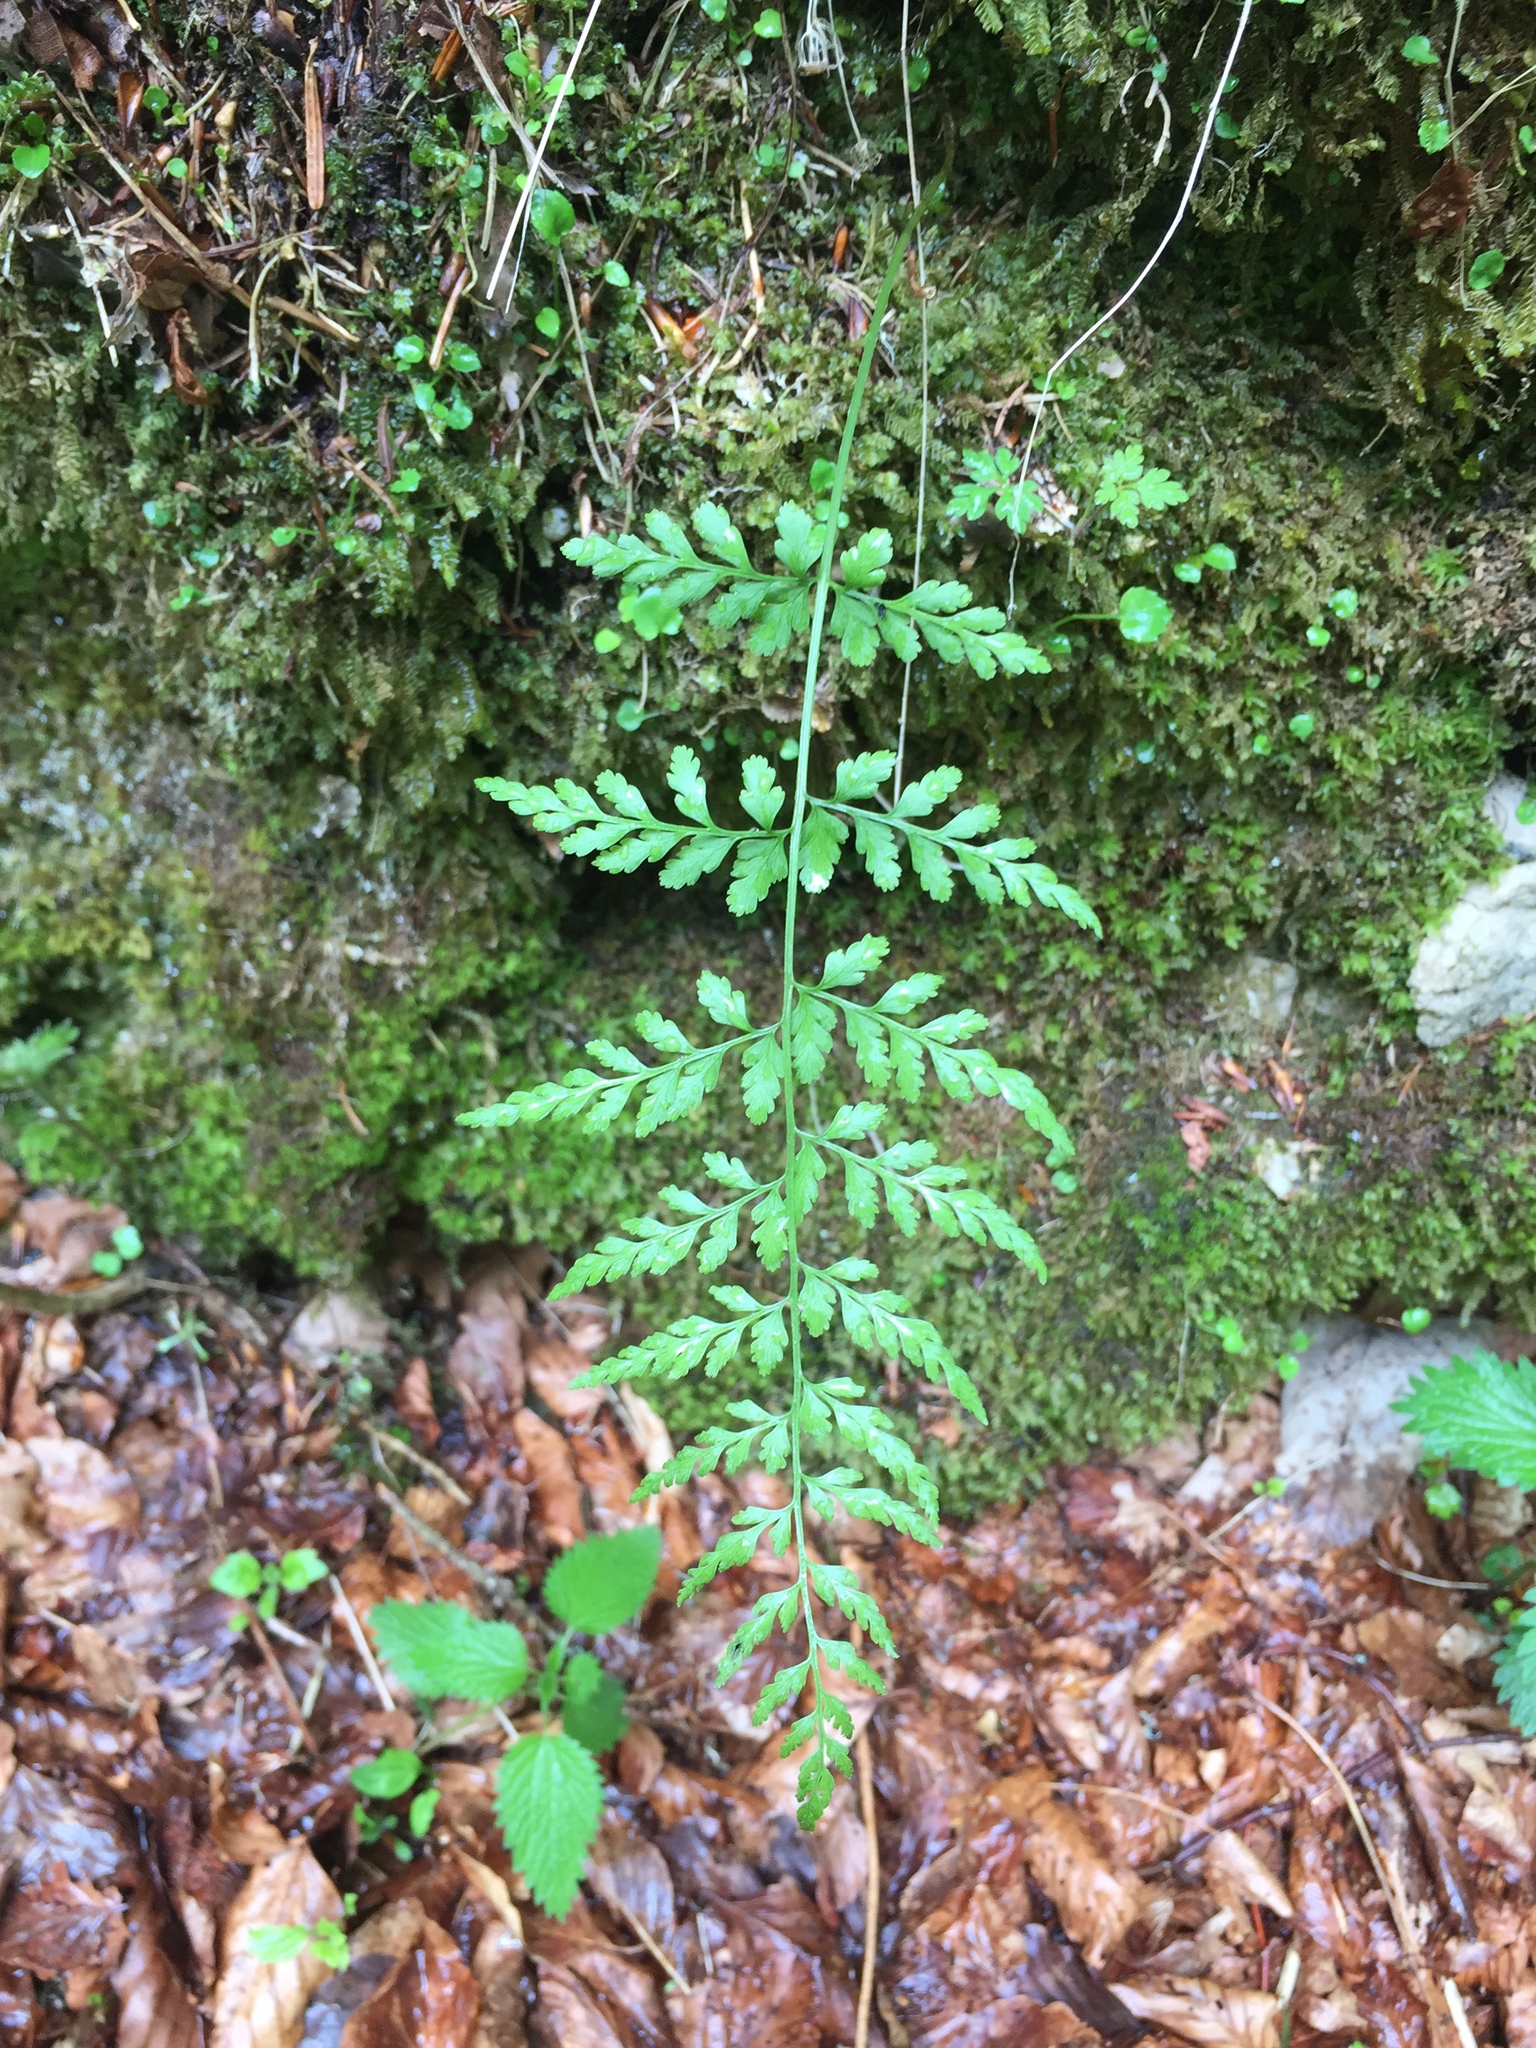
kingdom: Plantae
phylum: Tracheophyta
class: Polypodiopsida
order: Polypodiales
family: Cystopteridaceae
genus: Cystopteris
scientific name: Cystopteris fragilis
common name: Brittle bladder fern
